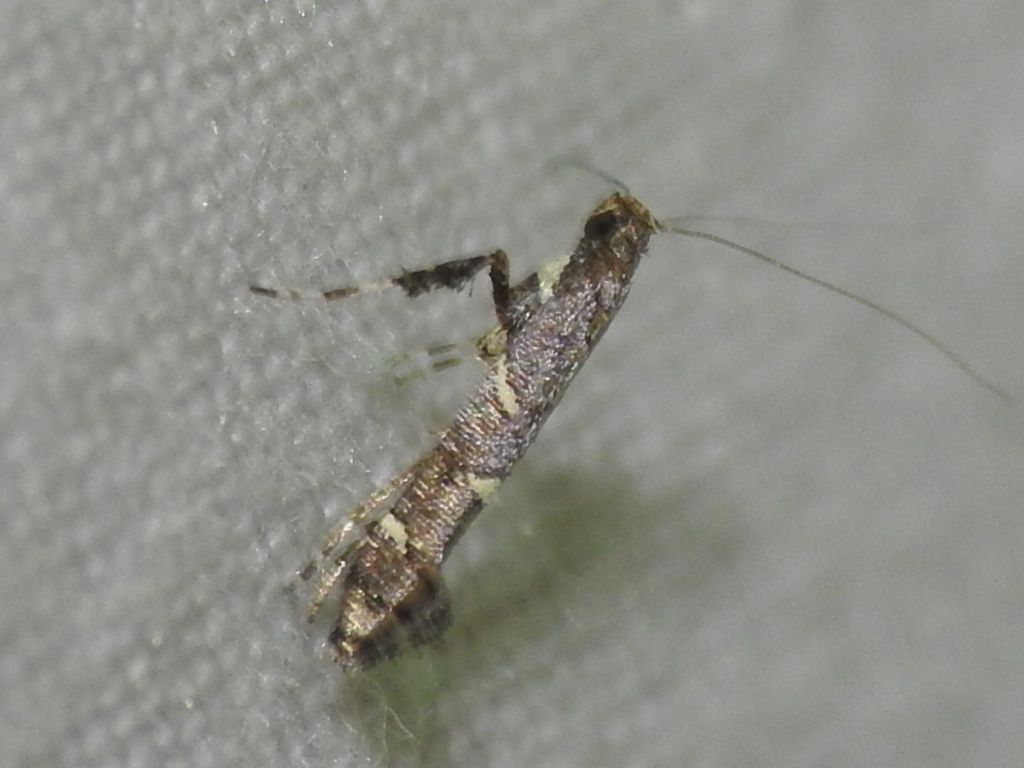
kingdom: Animalia
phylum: Arthropoda
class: Insecta
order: Lepidoptera
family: Gracillariidae
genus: Caloptilia
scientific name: Caloptilia triadicae
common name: Tallow leaf roller
